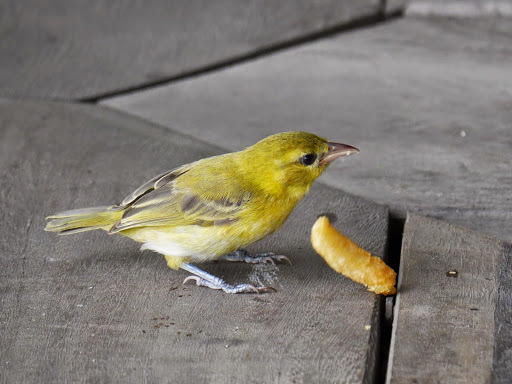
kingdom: Animalia
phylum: Chordata
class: Aves
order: Passeriformes
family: Ploceidae
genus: Ploceus
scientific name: Ploceus aurantius
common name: Orange weaver
